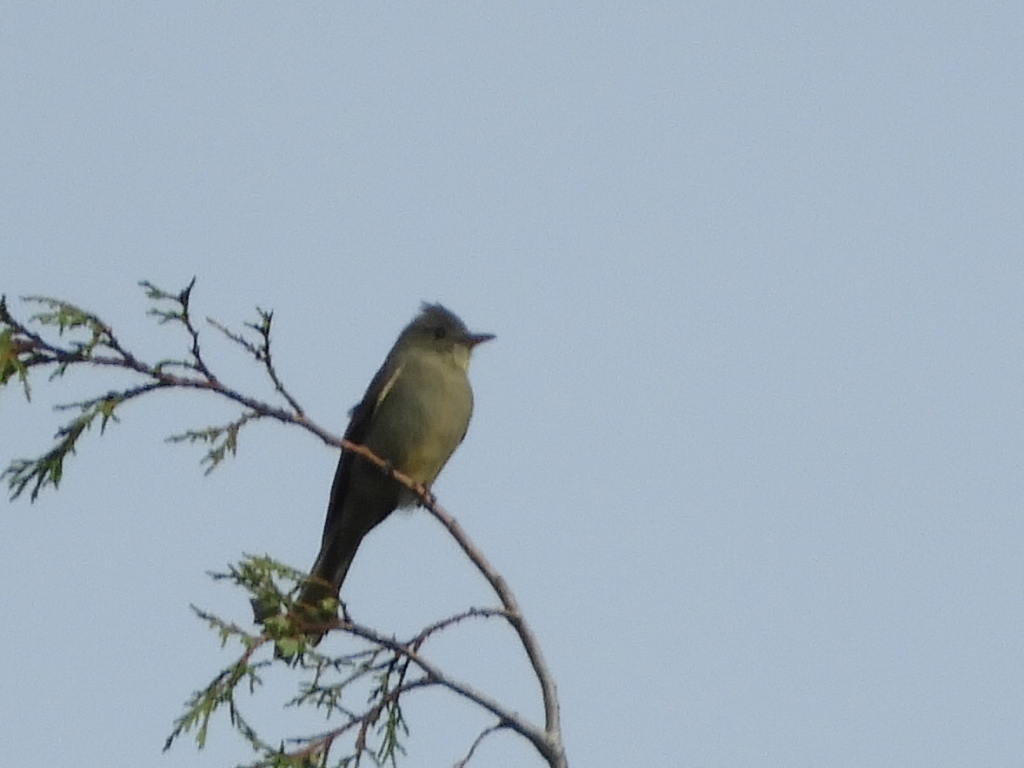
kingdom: Animalia
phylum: Chordata
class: Aves
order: Passeriformes
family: Tyrannidae
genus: Contopus
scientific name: Contopus pertinax
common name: Greater pewee
